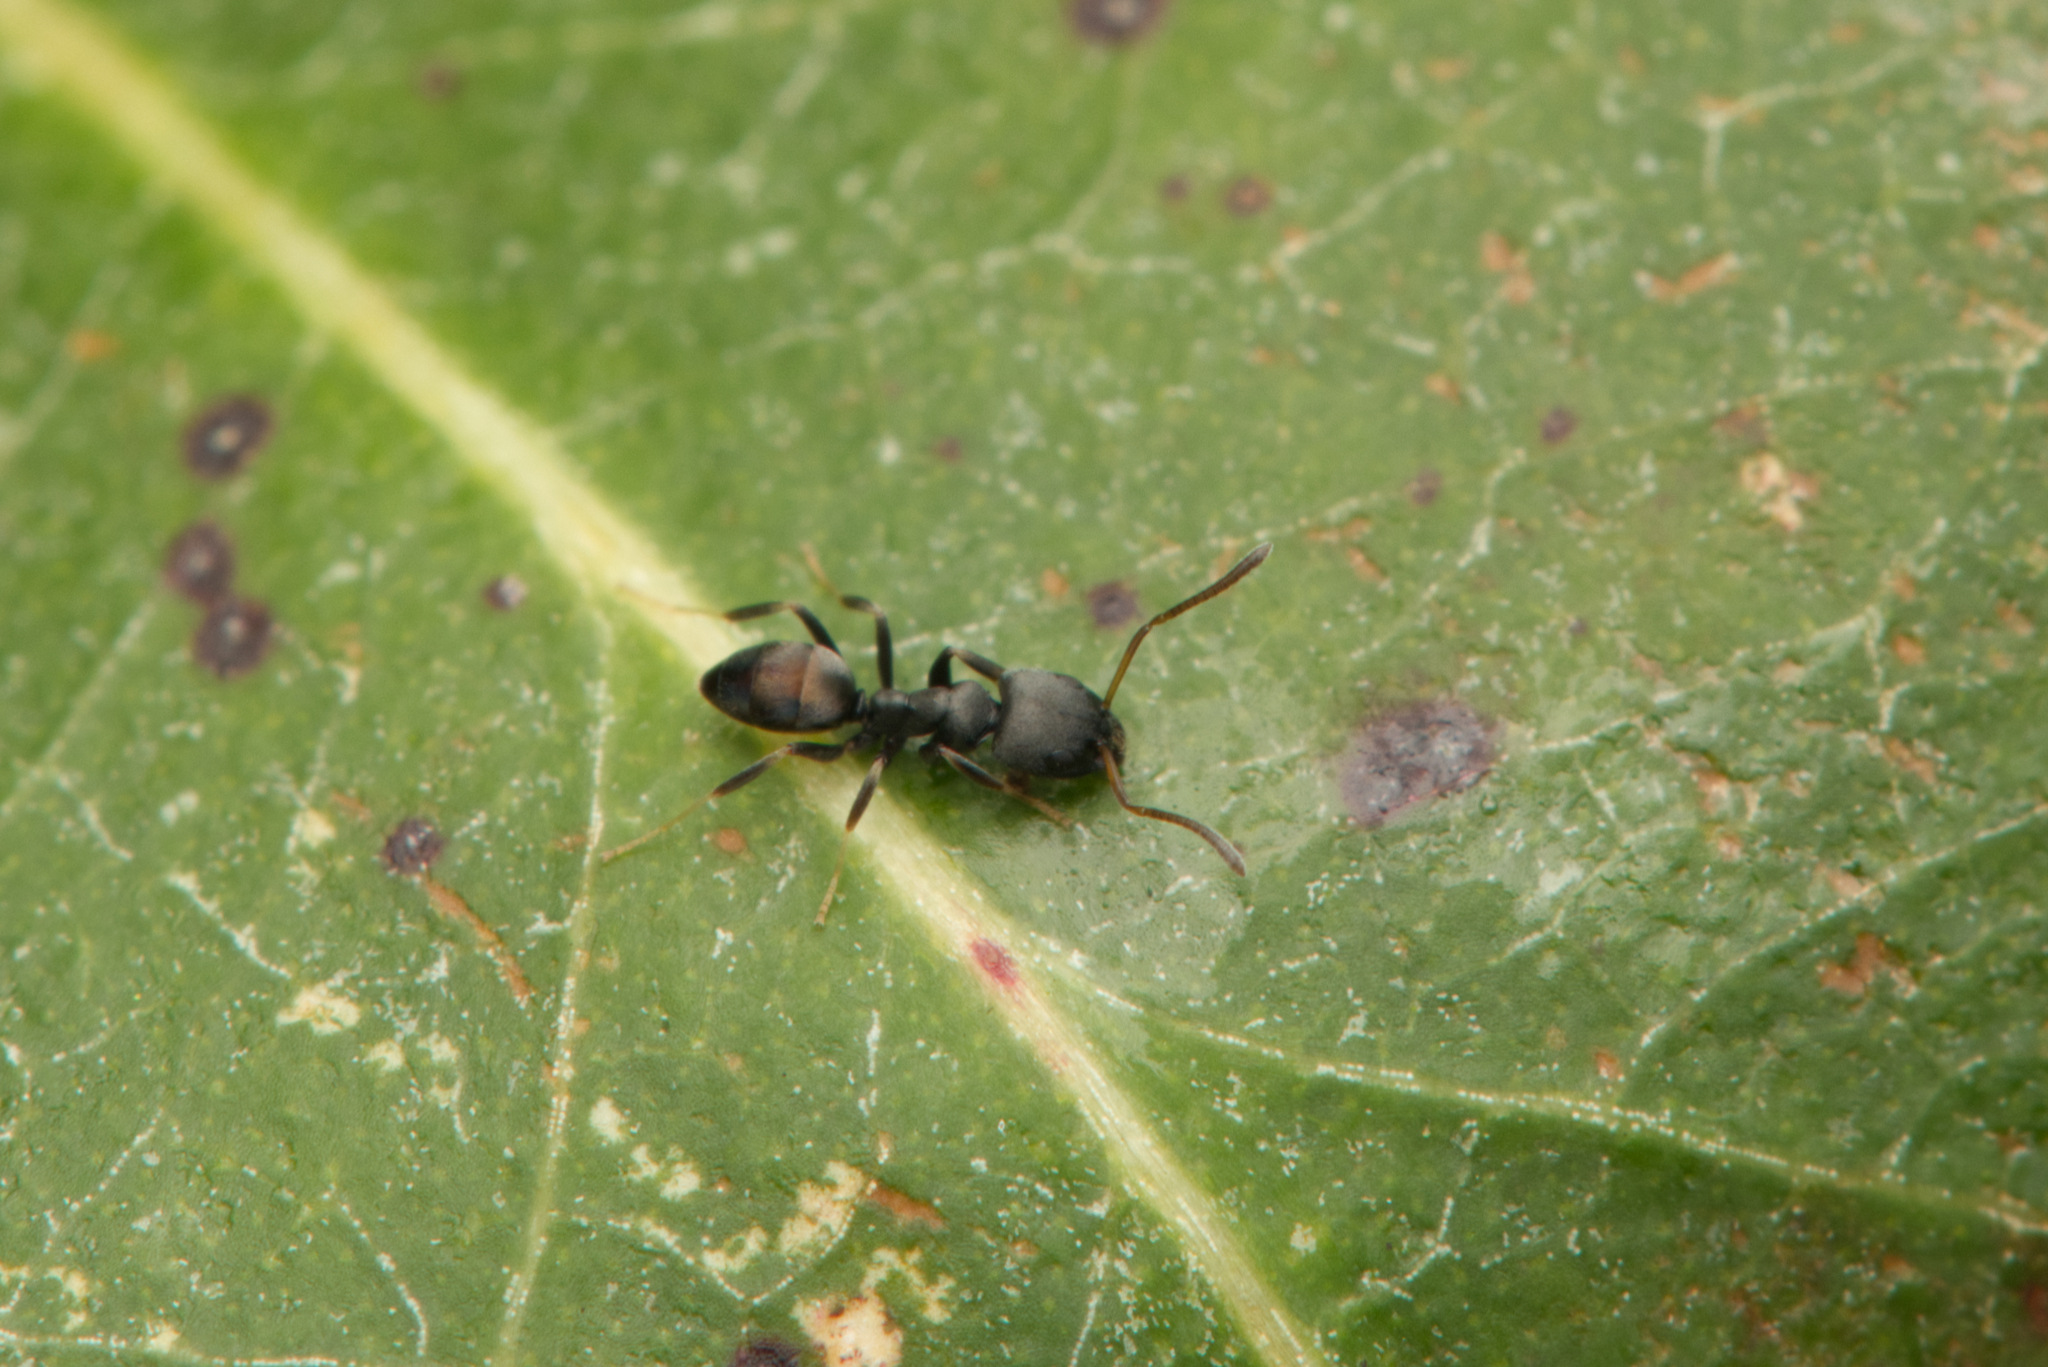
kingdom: Animalia
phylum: Arthropoda
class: Insecta
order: Hymenoptera
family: Formicidae
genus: Ochetellus
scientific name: Ochetellus punctatissimus
